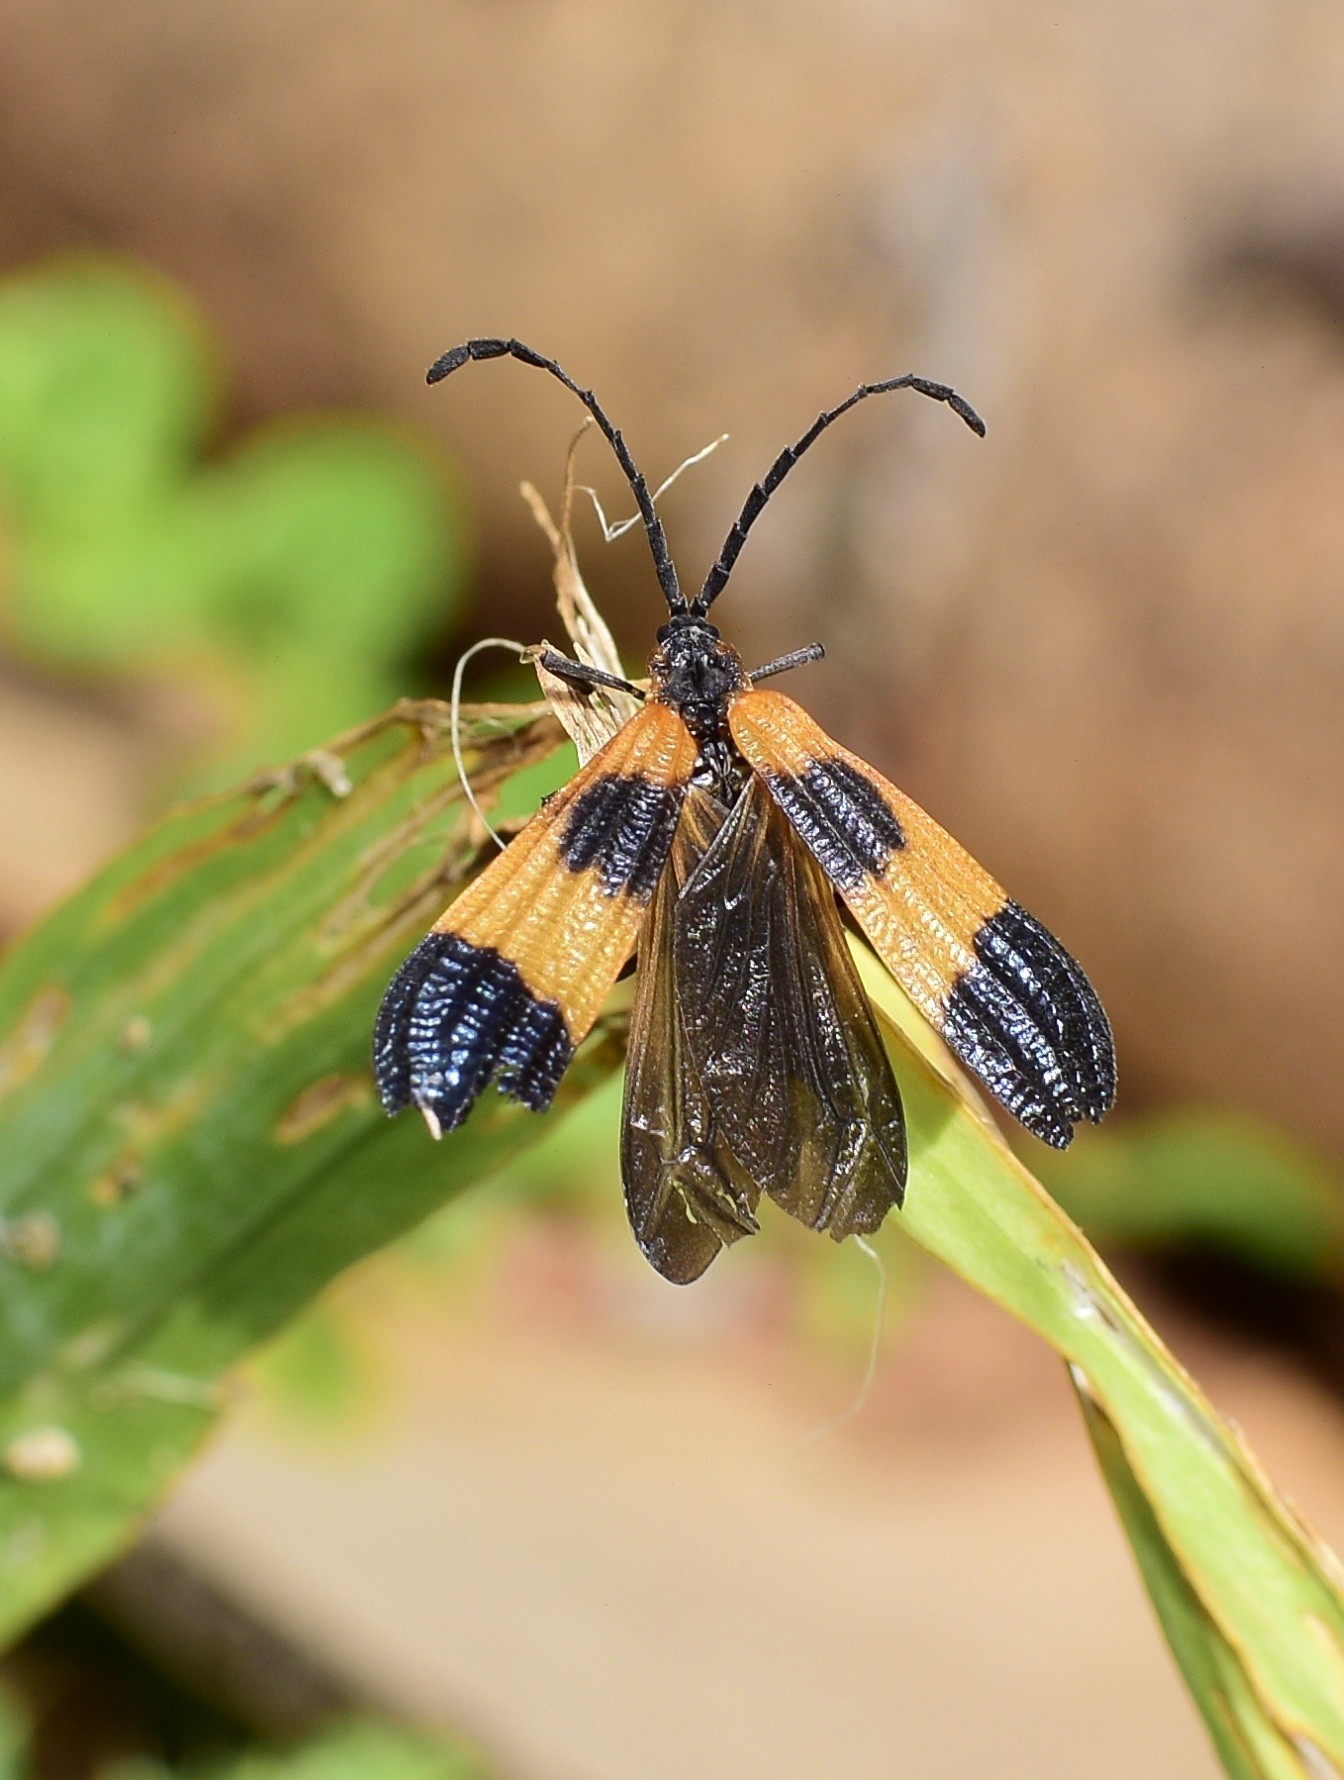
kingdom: Animalia
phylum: Arthropoda
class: Insecta
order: Coleoptera
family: Lycidae
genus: Calopteron
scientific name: Calopteron terminale
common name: End band net-winged beetle
